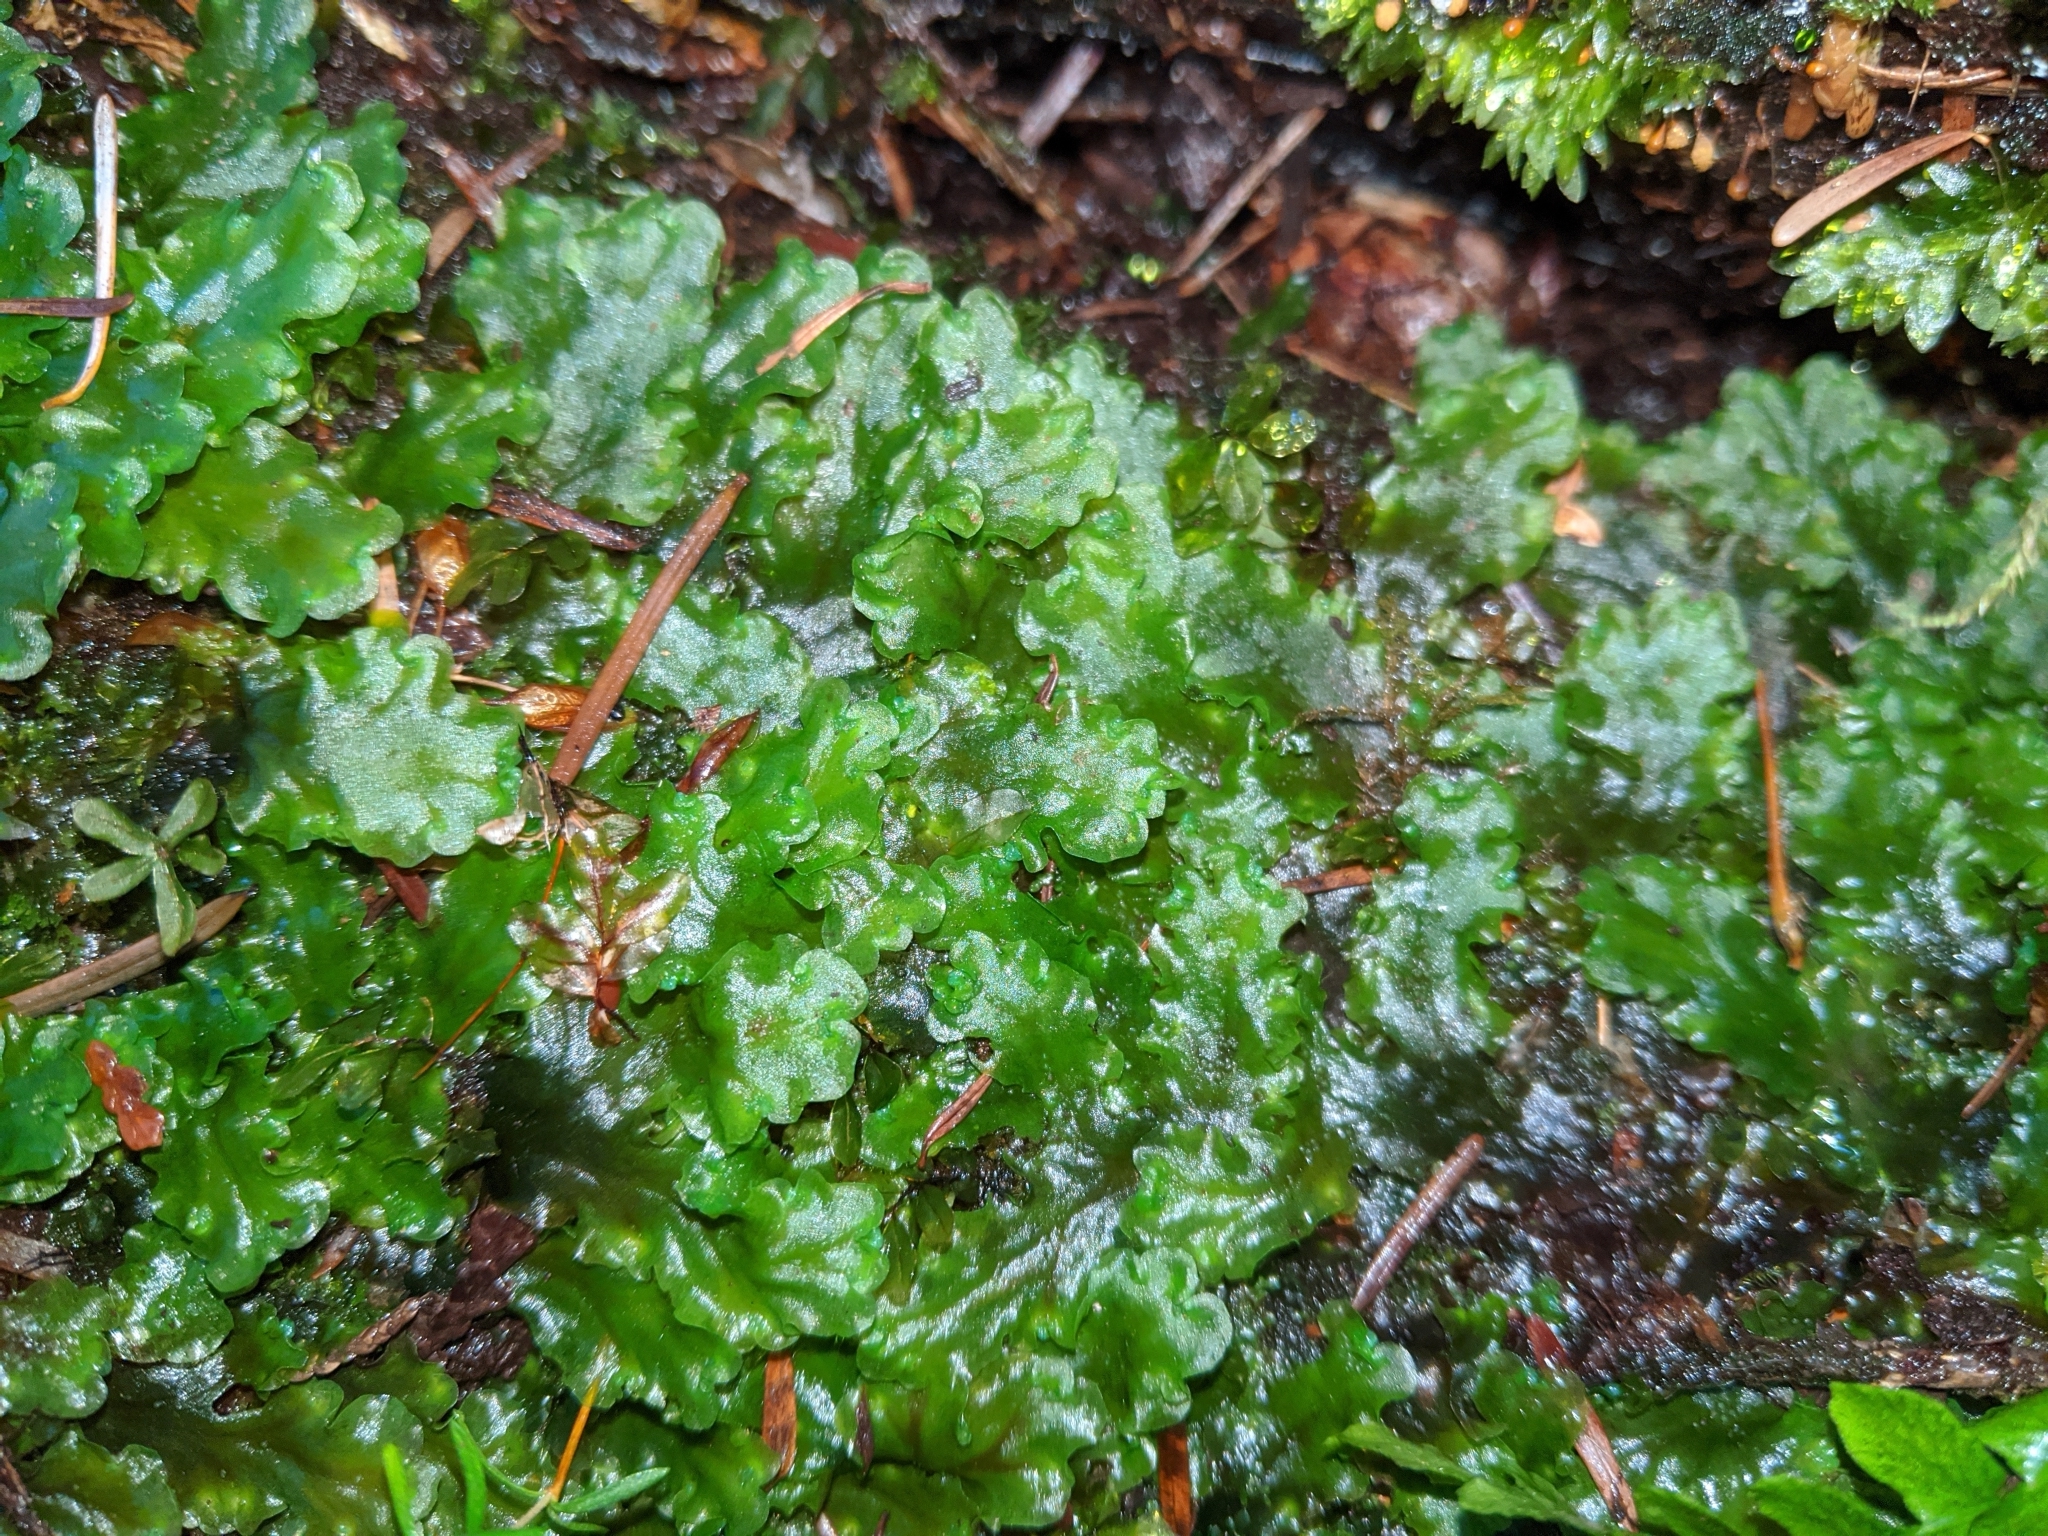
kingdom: Plantae
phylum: Marchantiophyta
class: Jungermanniopsida
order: Pelliales
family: Pelliaceae
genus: Pellia
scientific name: Pellia neesiana
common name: Nees  pellia
